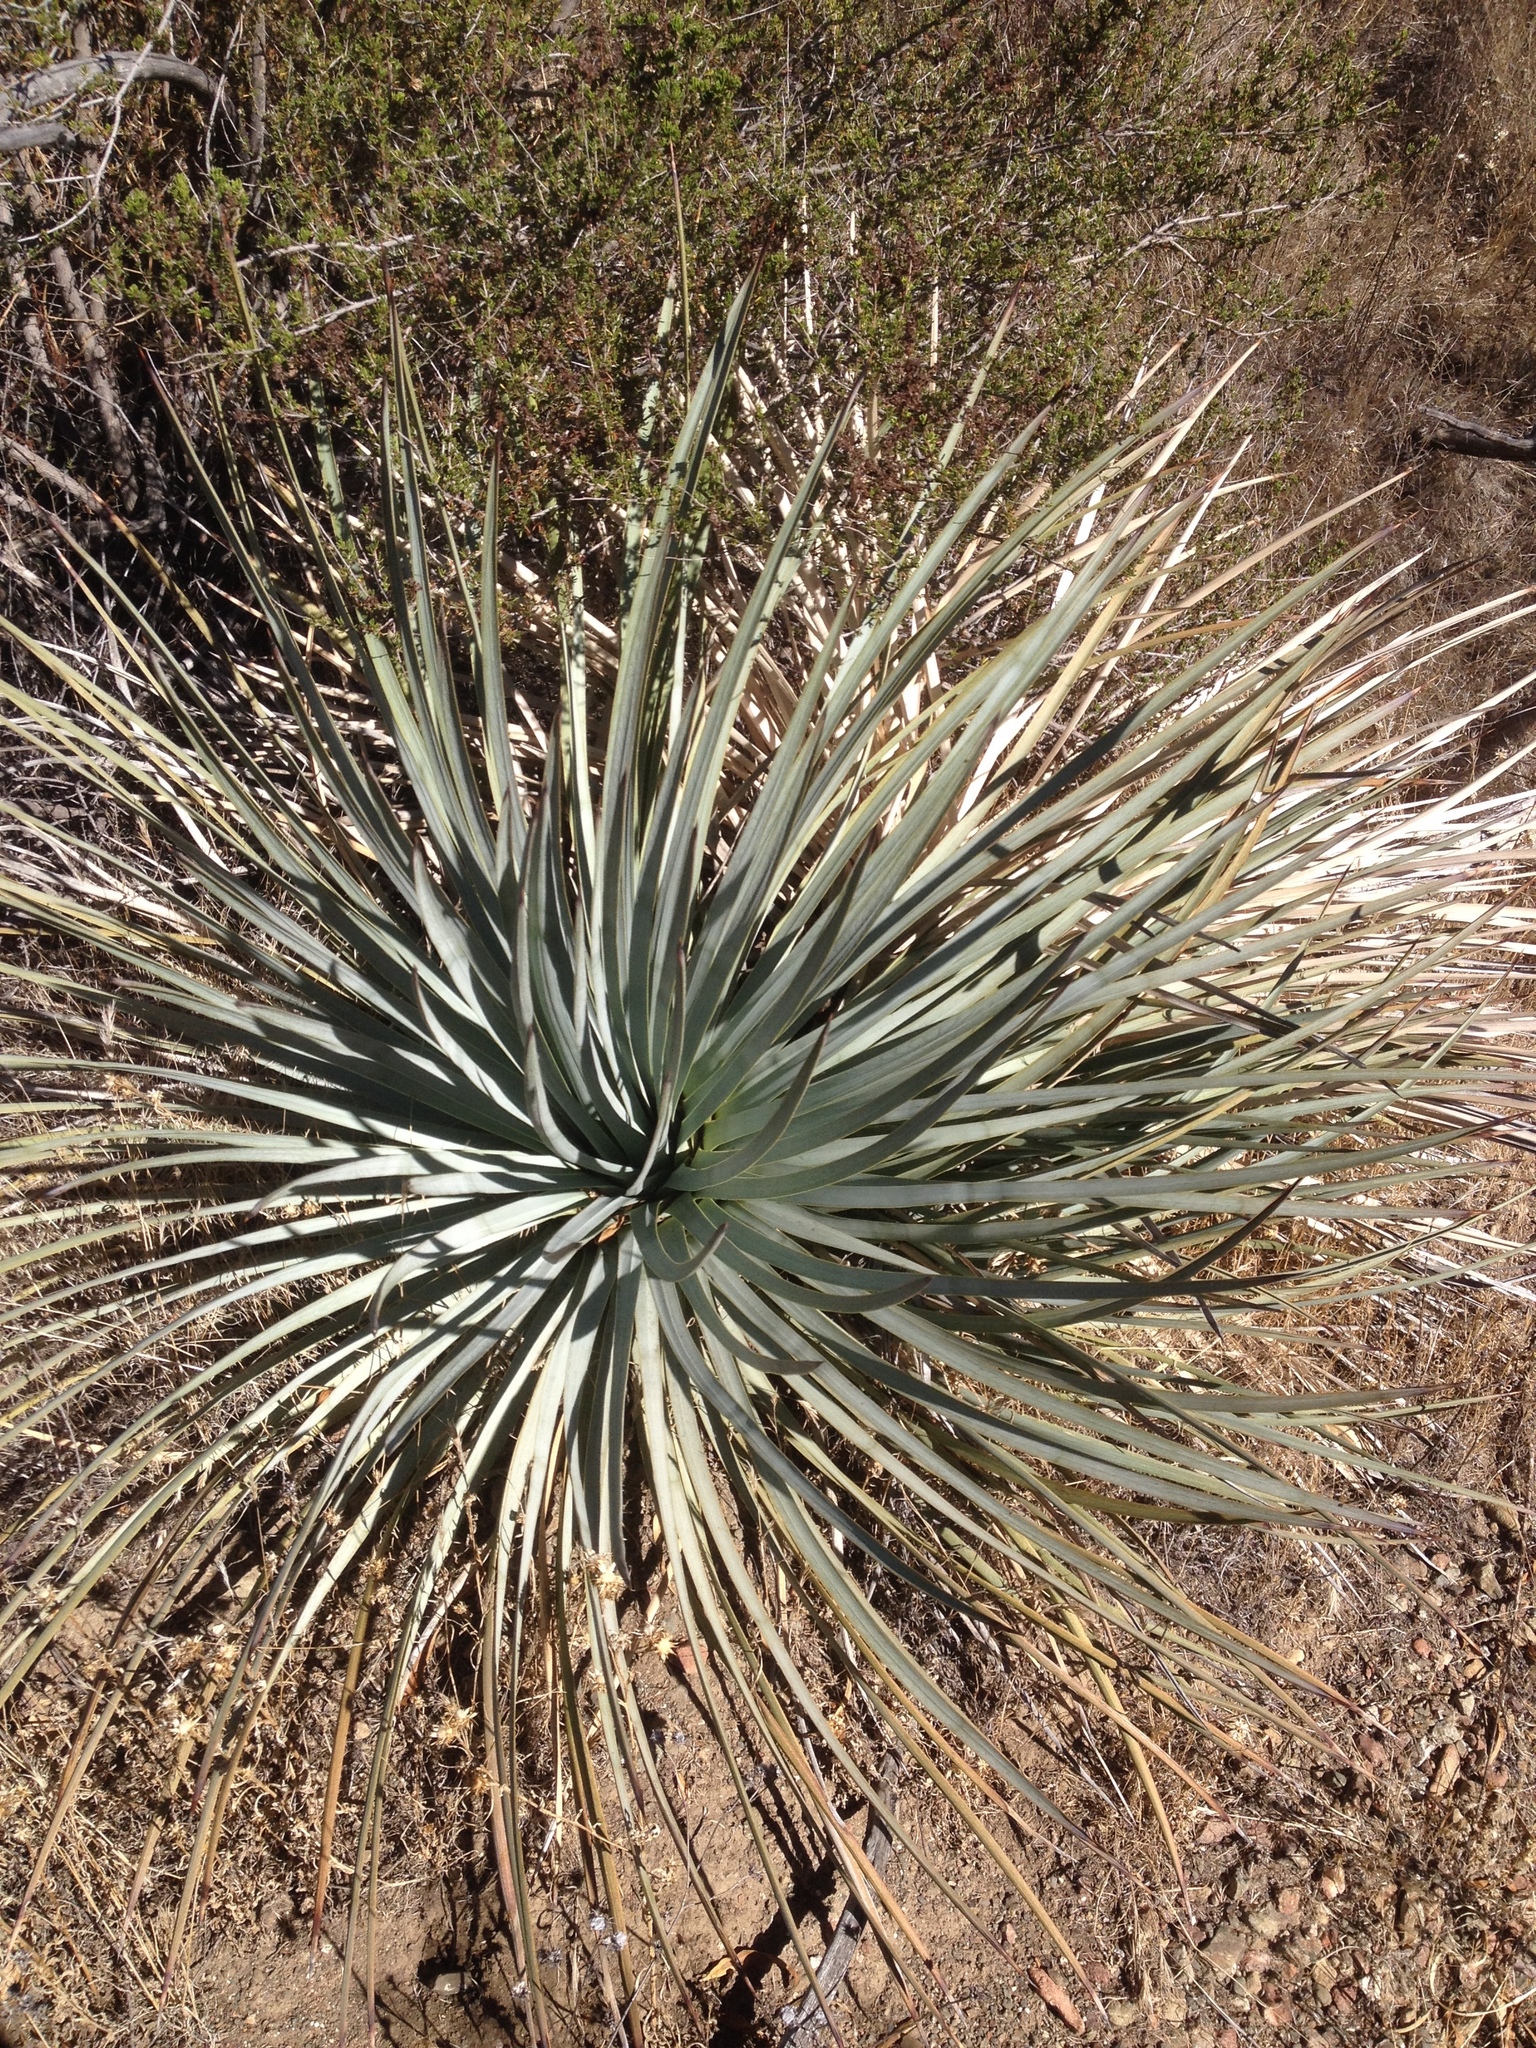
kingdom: Plantae
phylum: Tracheophyta
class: Liliopsida
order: Asparagales
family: Asparagaceae
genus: Hesperoyucca
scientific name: Hesperoyucca whipplei
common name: Our lord's-candle
